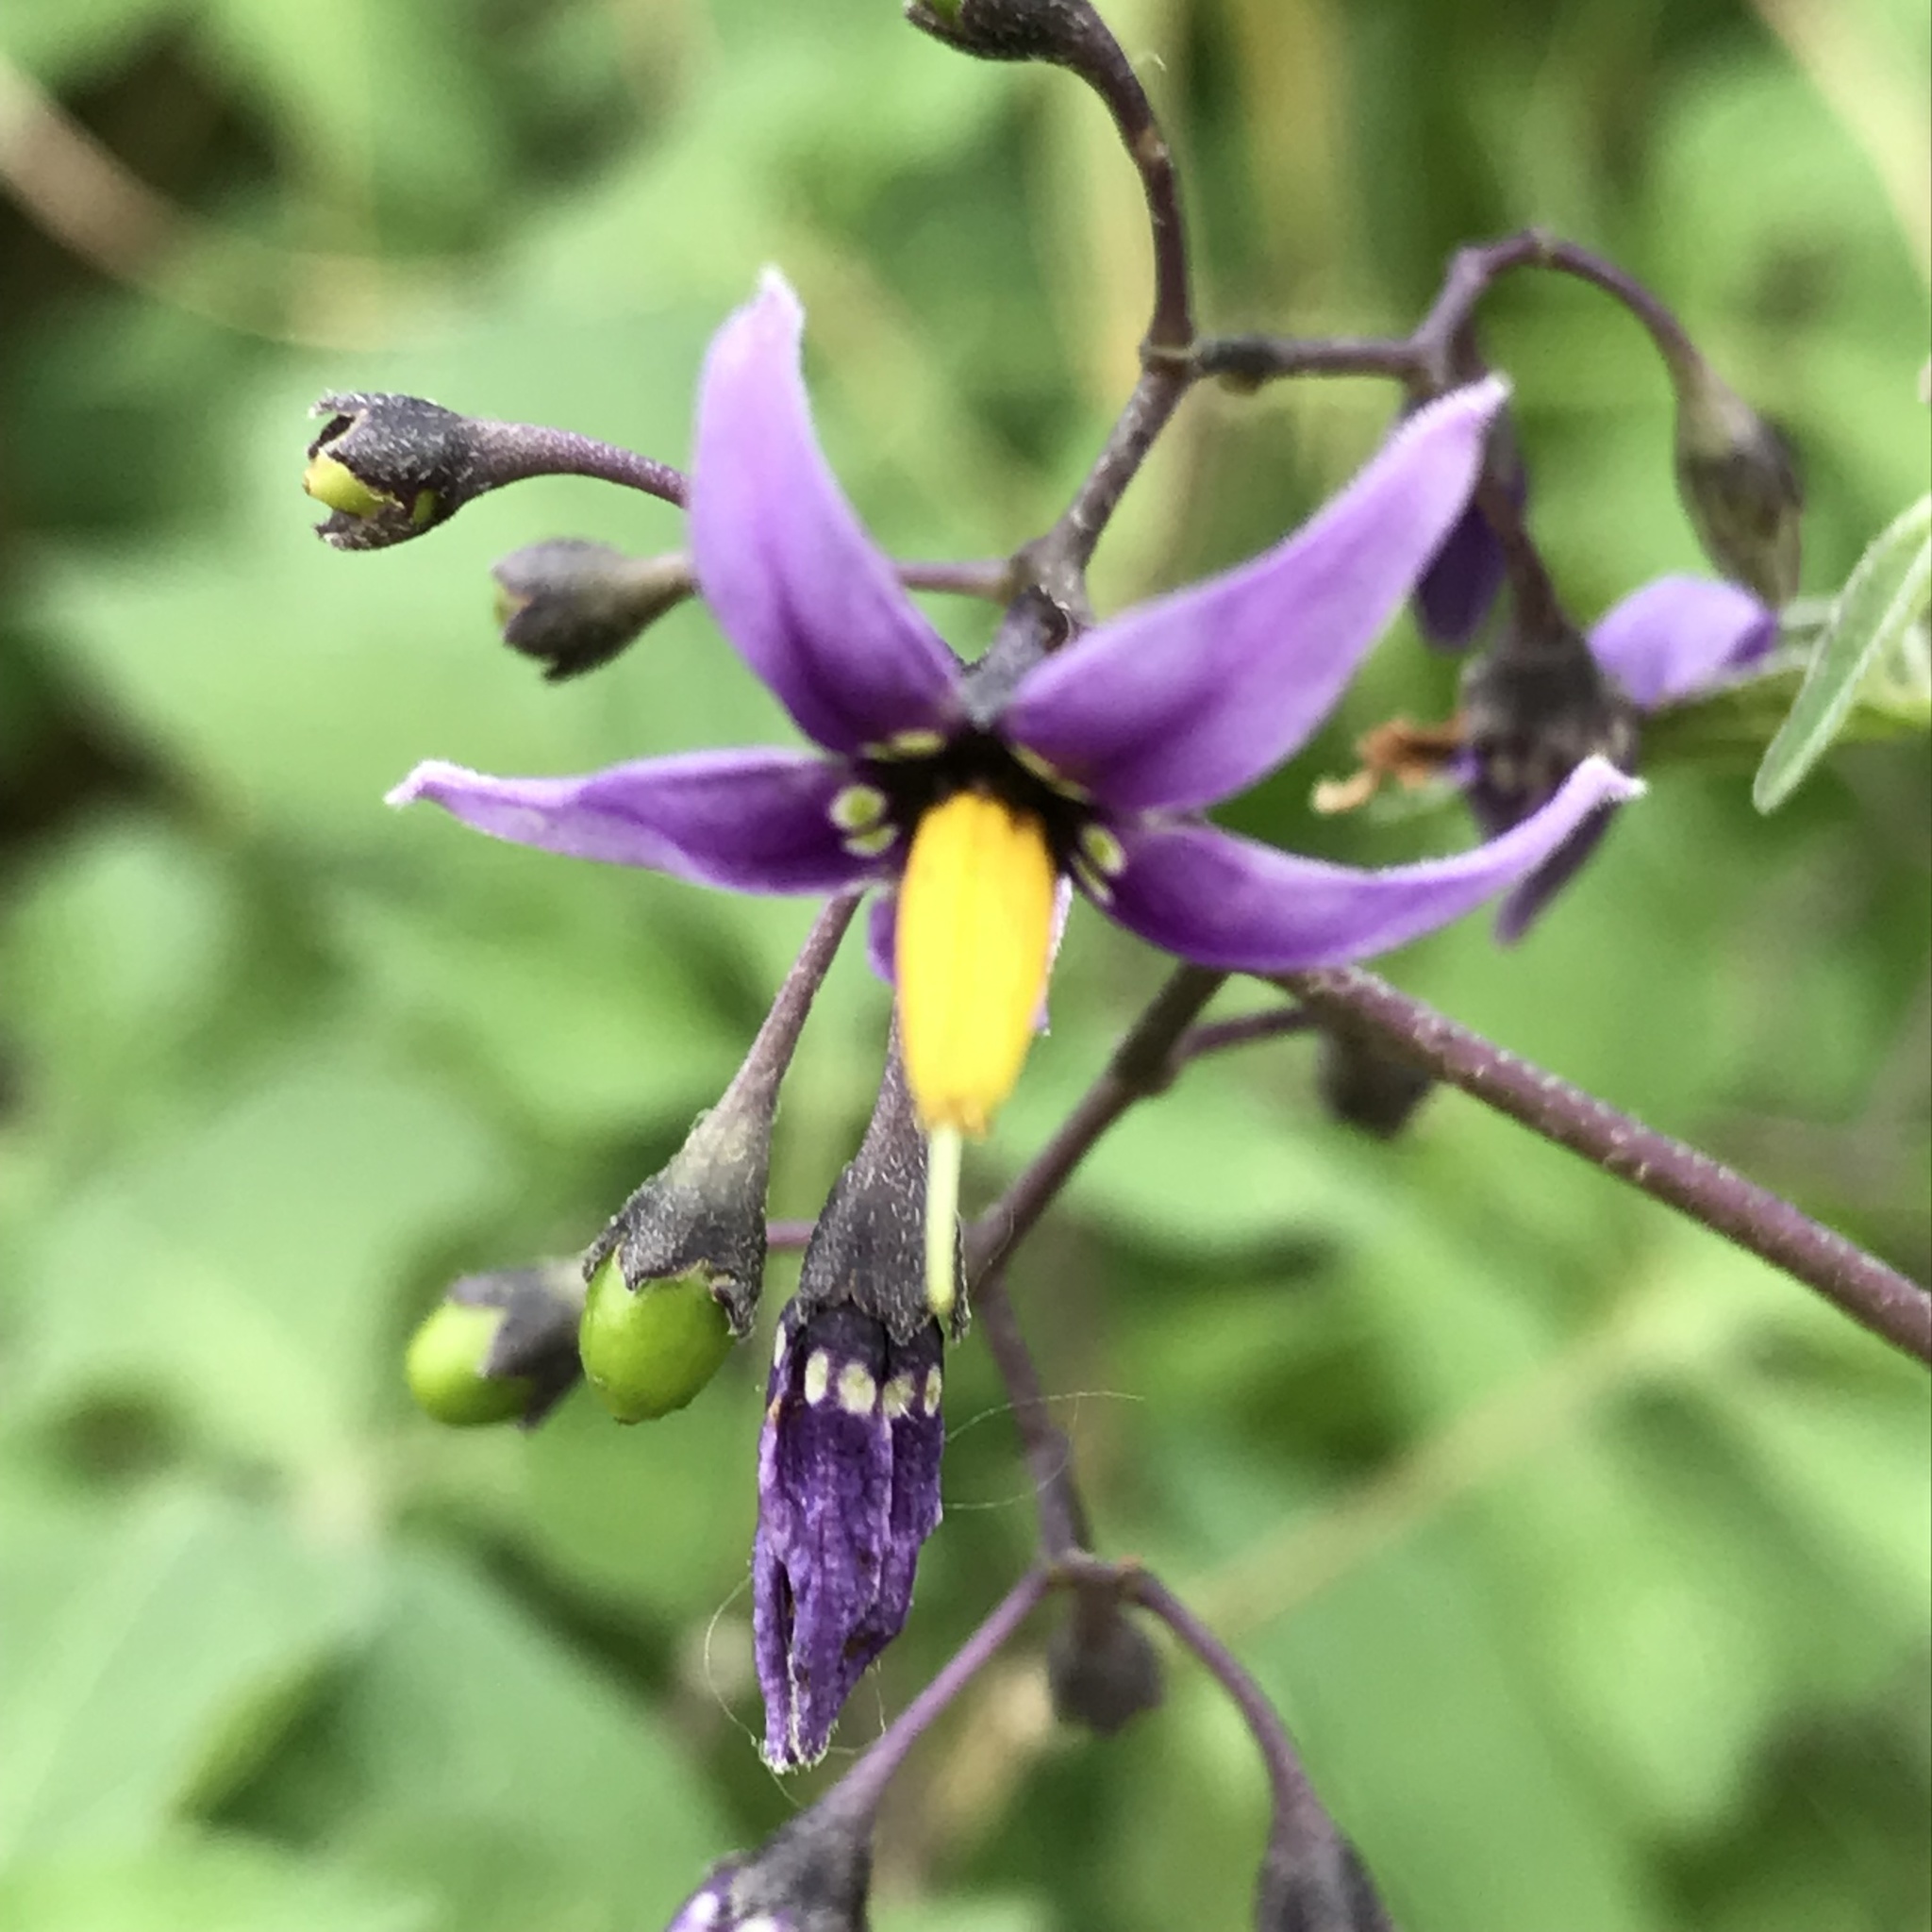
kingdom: Plantae
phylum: Tracheophyta
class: Magnoliopsida
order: Solanales
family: Solanaceae
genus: Solanum
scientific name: Solanum dulcamara
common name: Climbing nightshade
